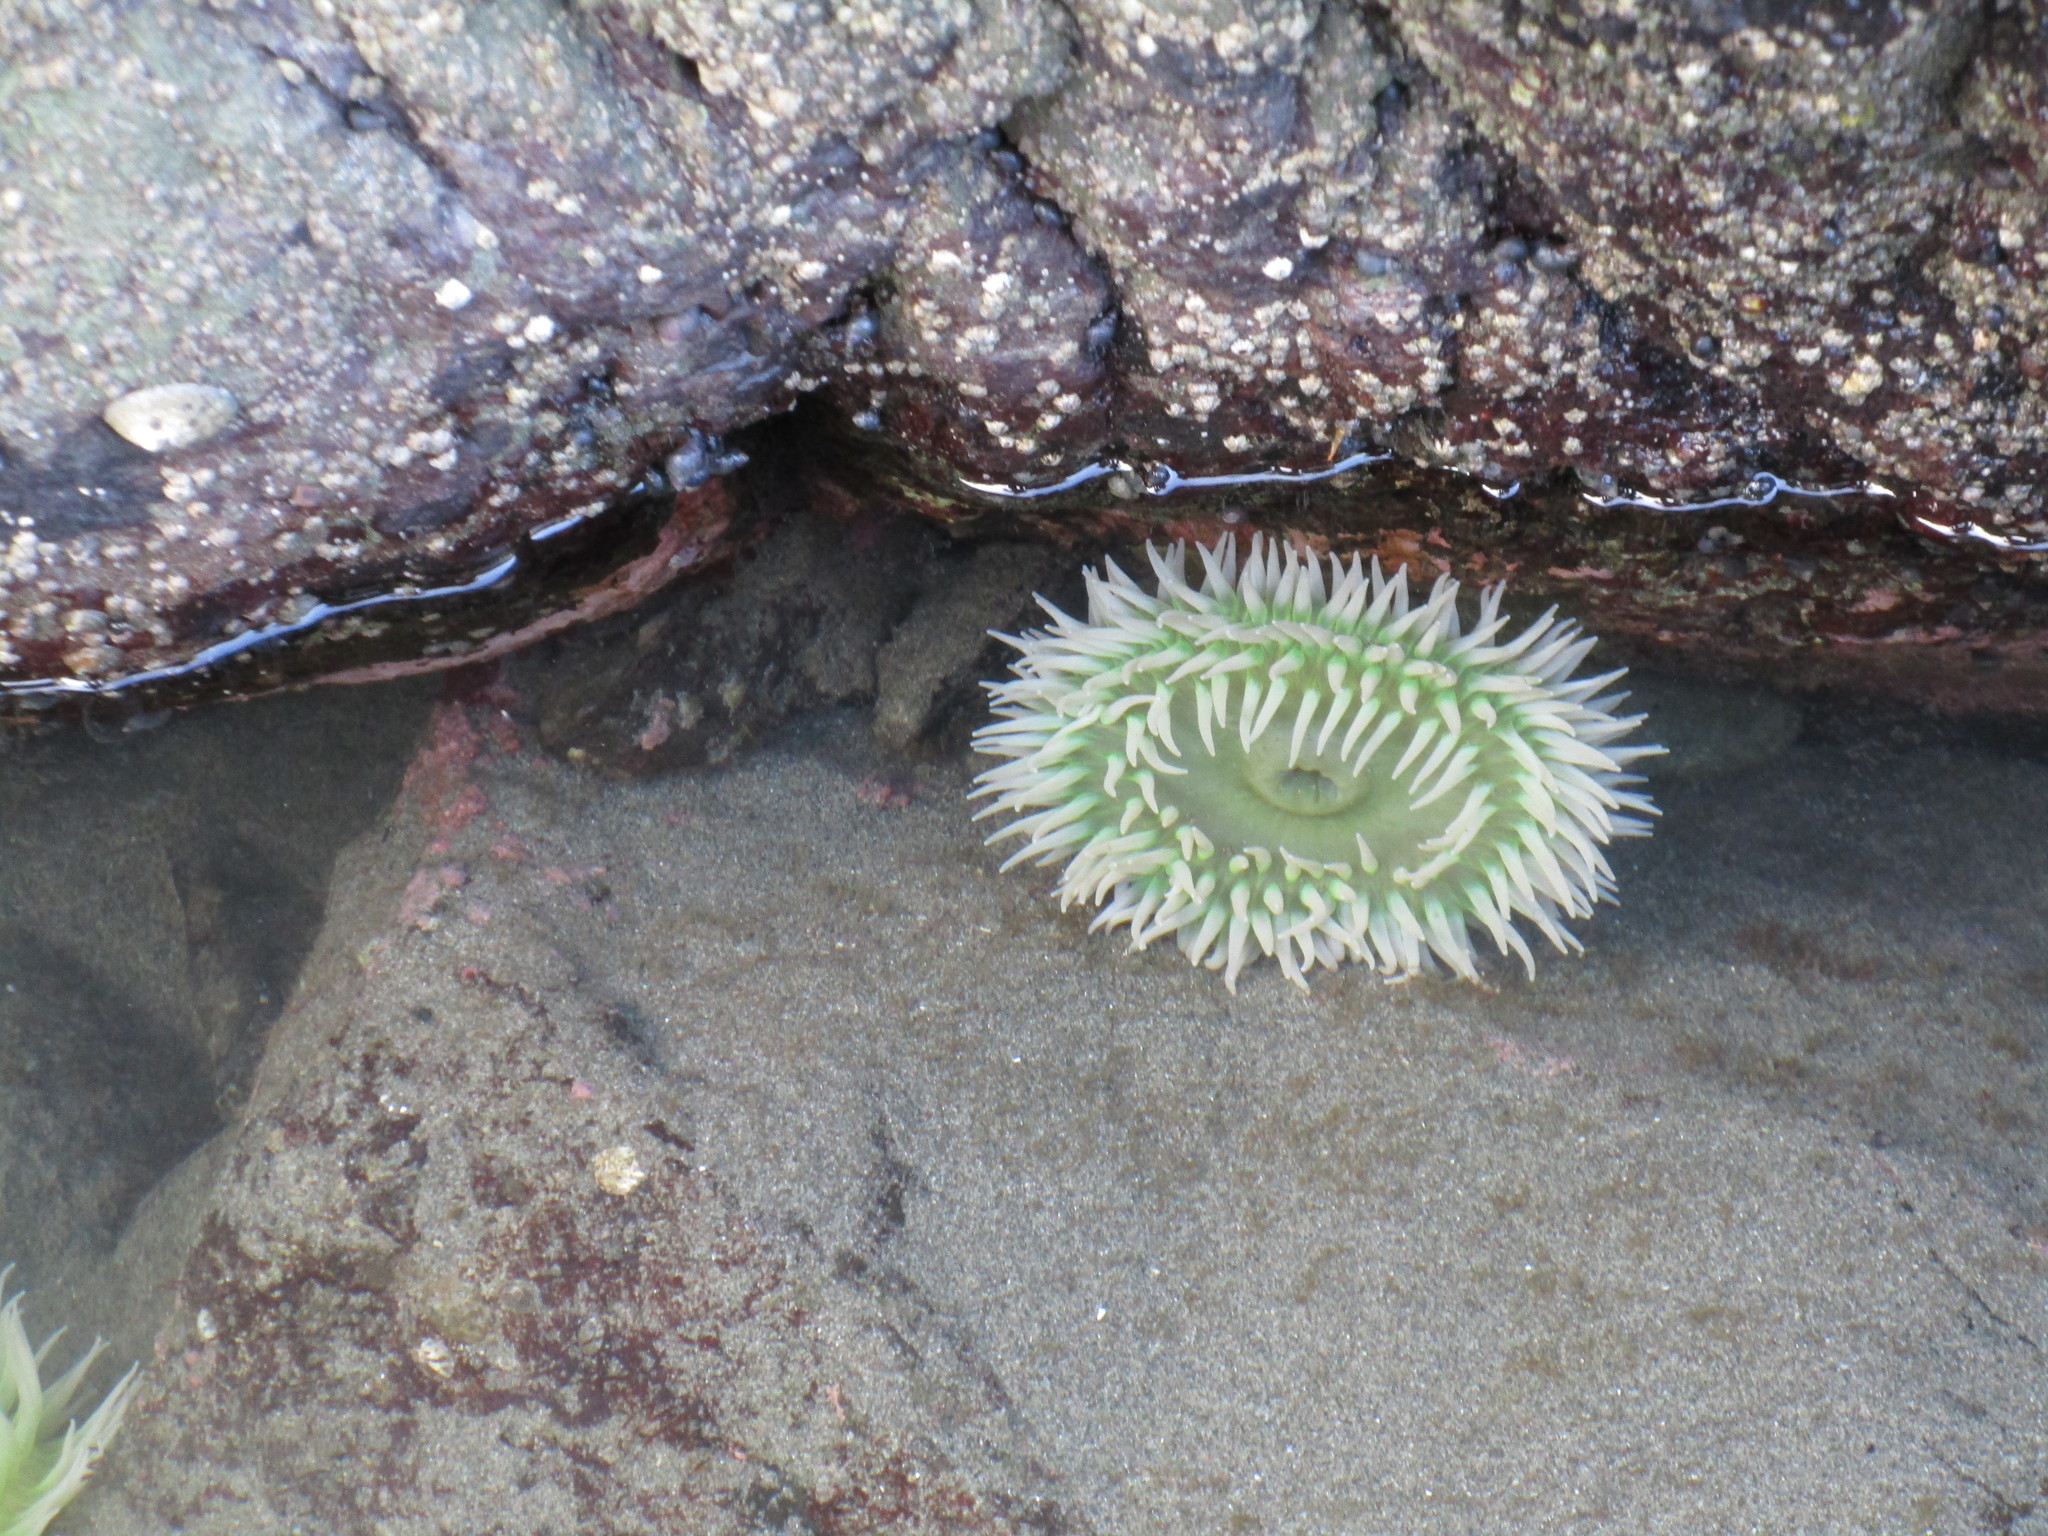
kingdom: Animalia
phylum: Cnidaria
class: Anthozoa
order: Actiniaria
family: Actiniidae
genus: Anthopleura
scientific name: Anthopleura xanthogrammica
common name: Giant green anemone
